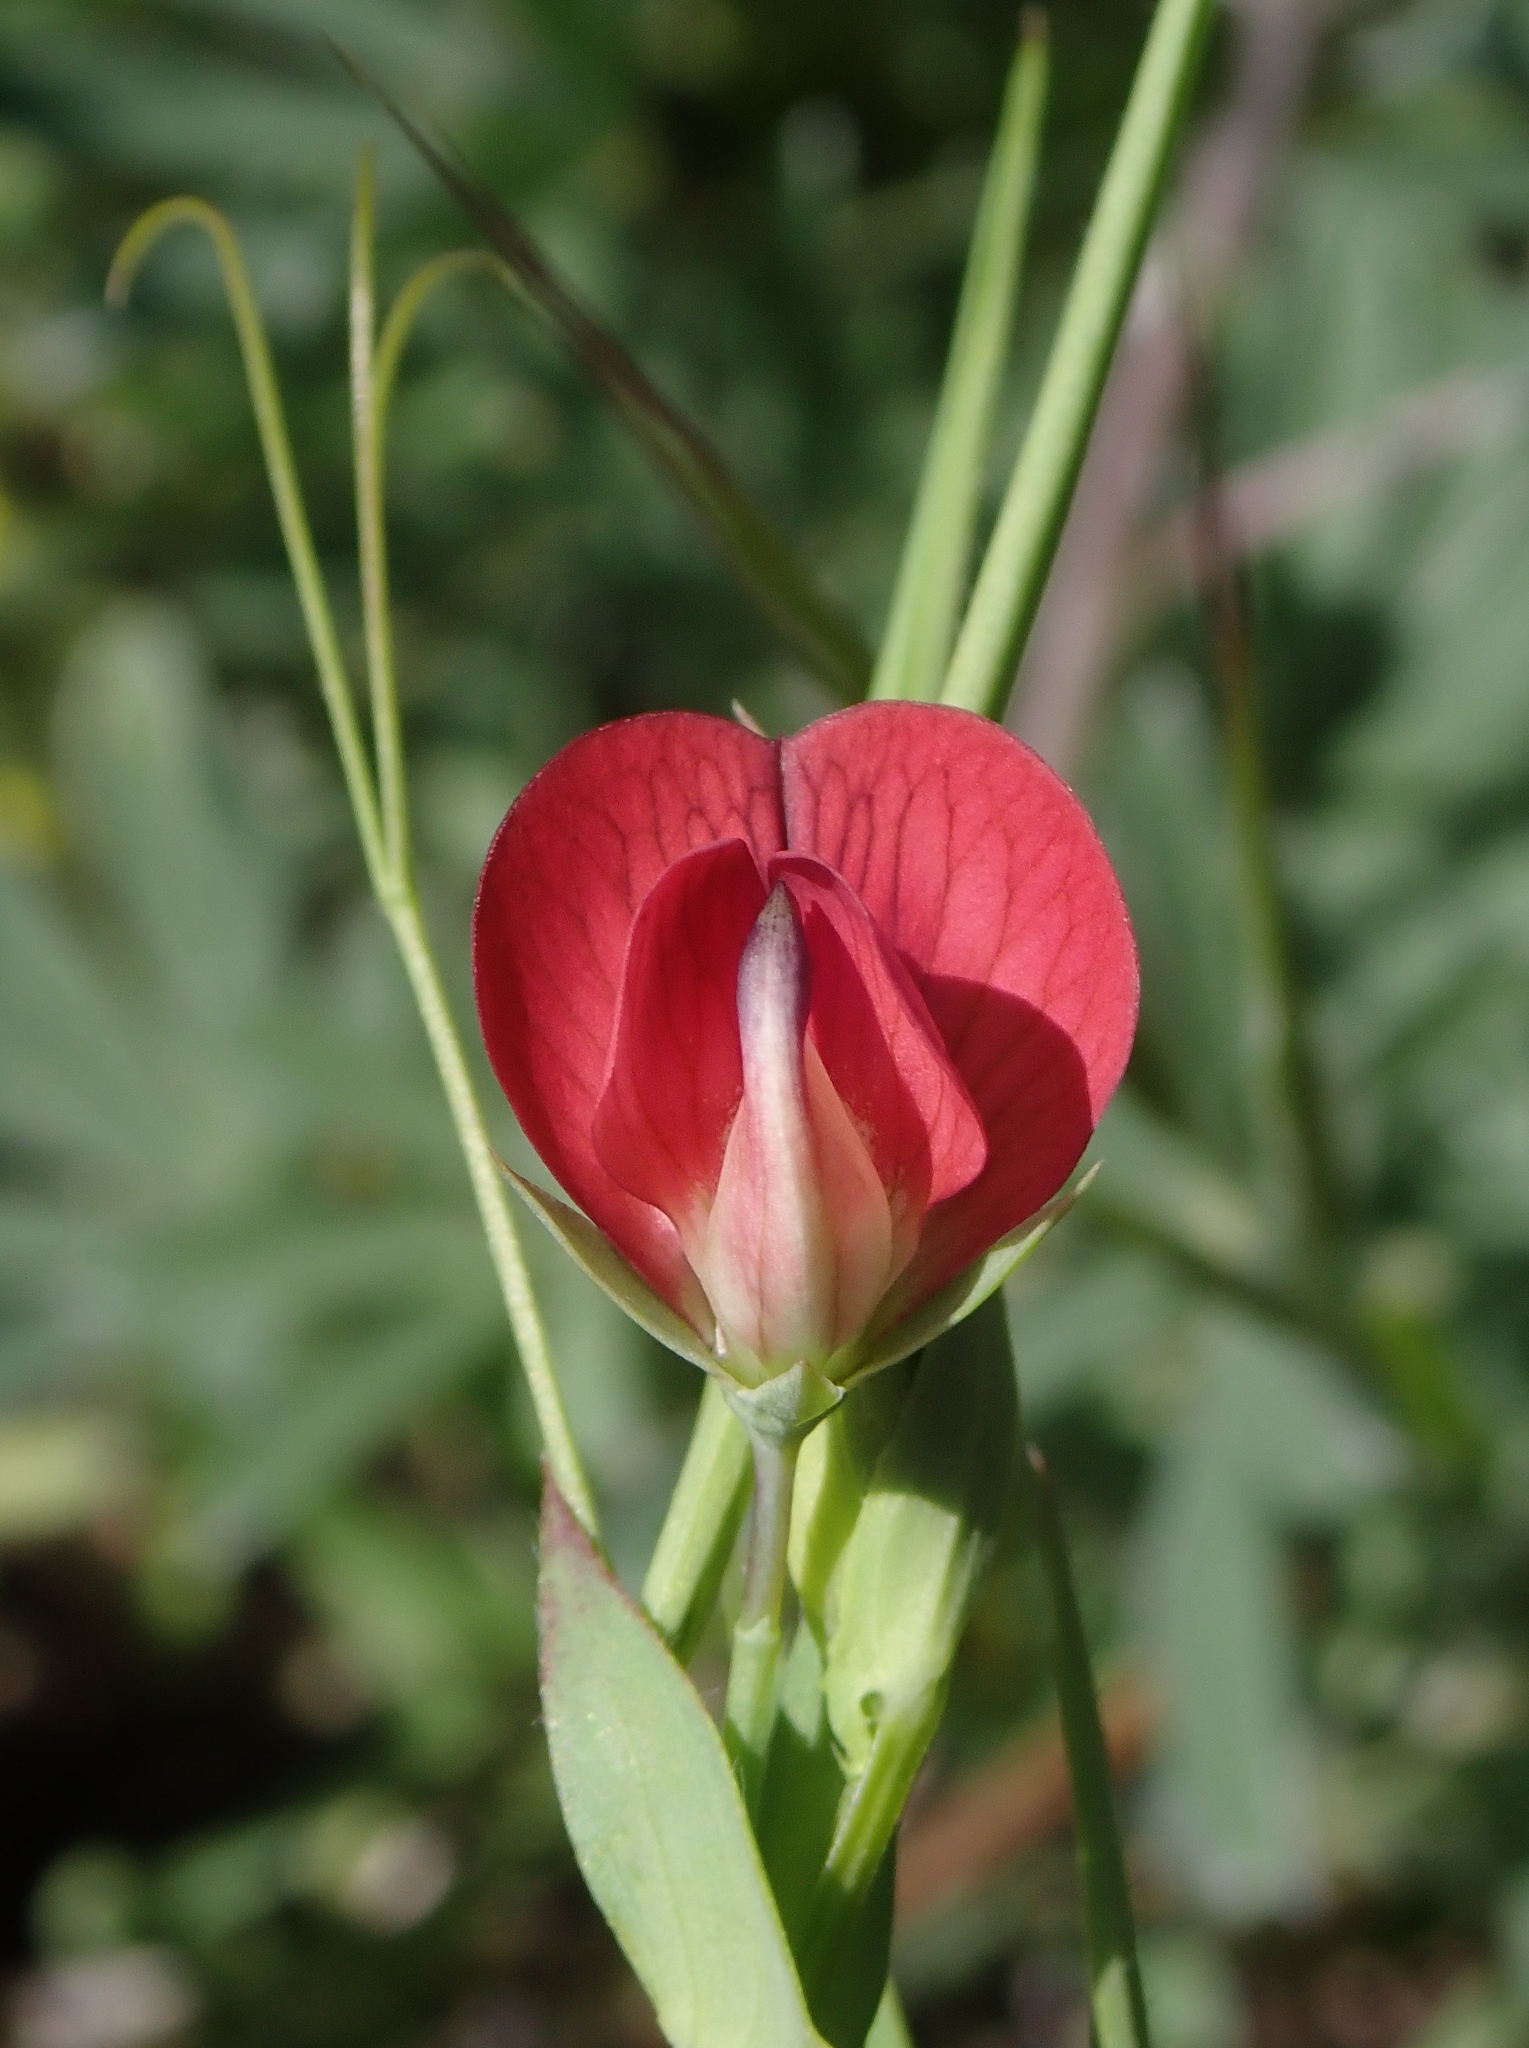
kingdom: Plantae
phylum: Tracheophyta
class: Magnoliopsida
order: Fabales
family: Fabaceae
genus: Lathyrus
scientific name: Lathyrus cicera
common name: Red vetchling
